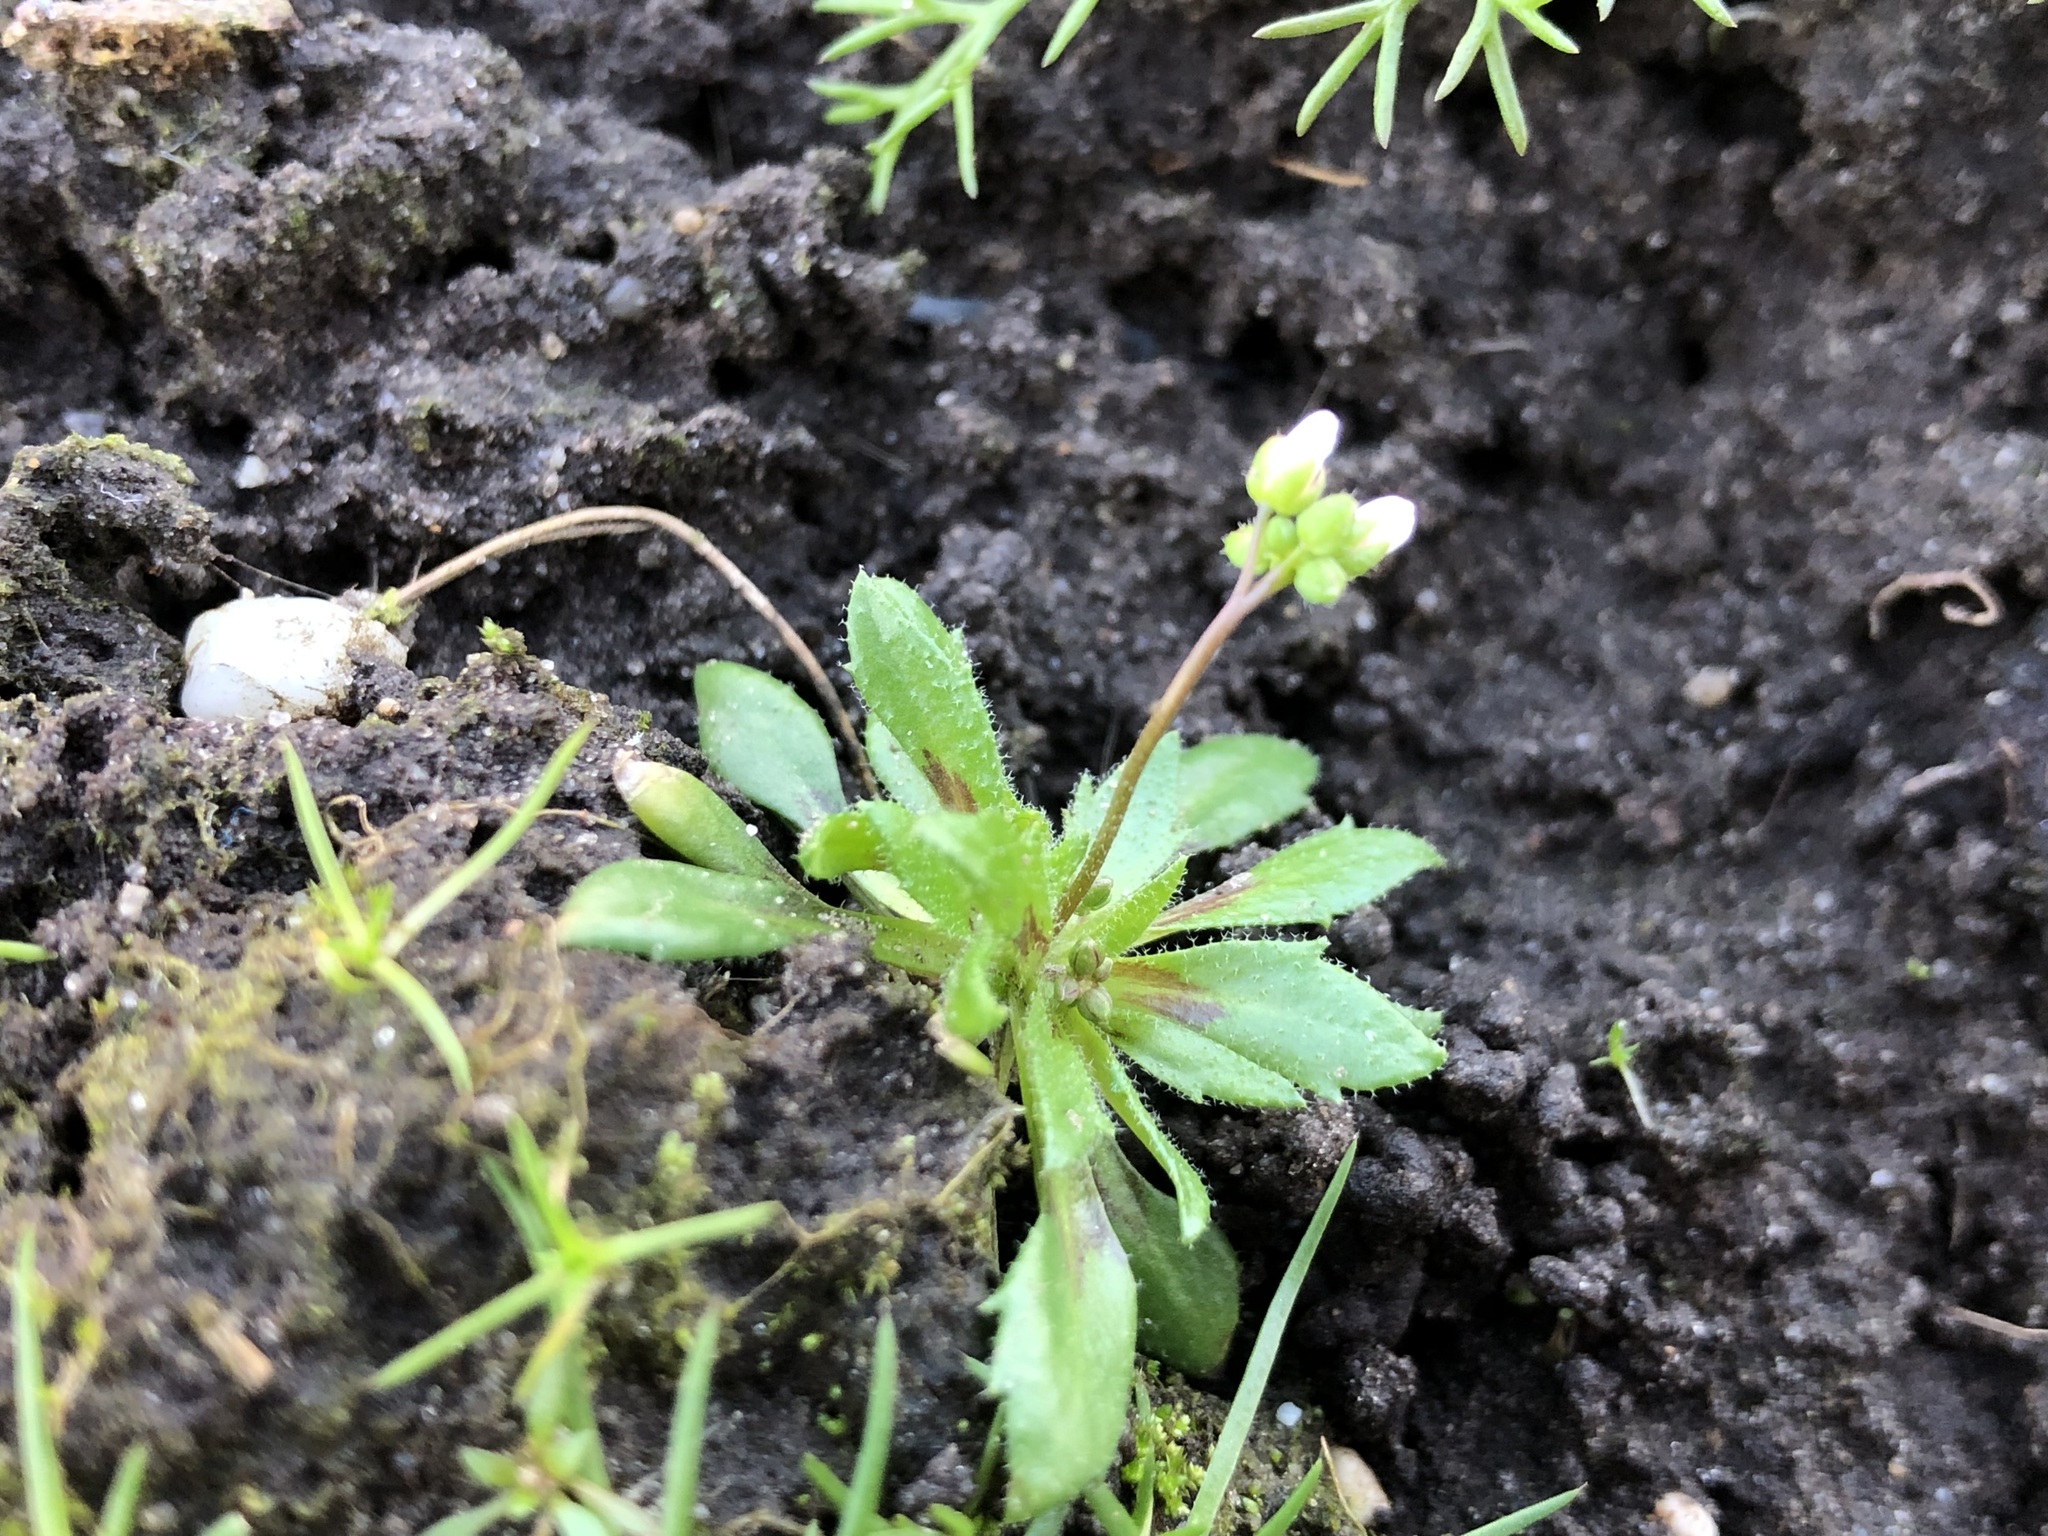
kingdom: Plantae
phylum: Tracheophyta
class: Magnoliopsida
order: Brassicales
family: Brassicaceae
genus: Draba
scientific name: Draba verna
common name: Spring draba
